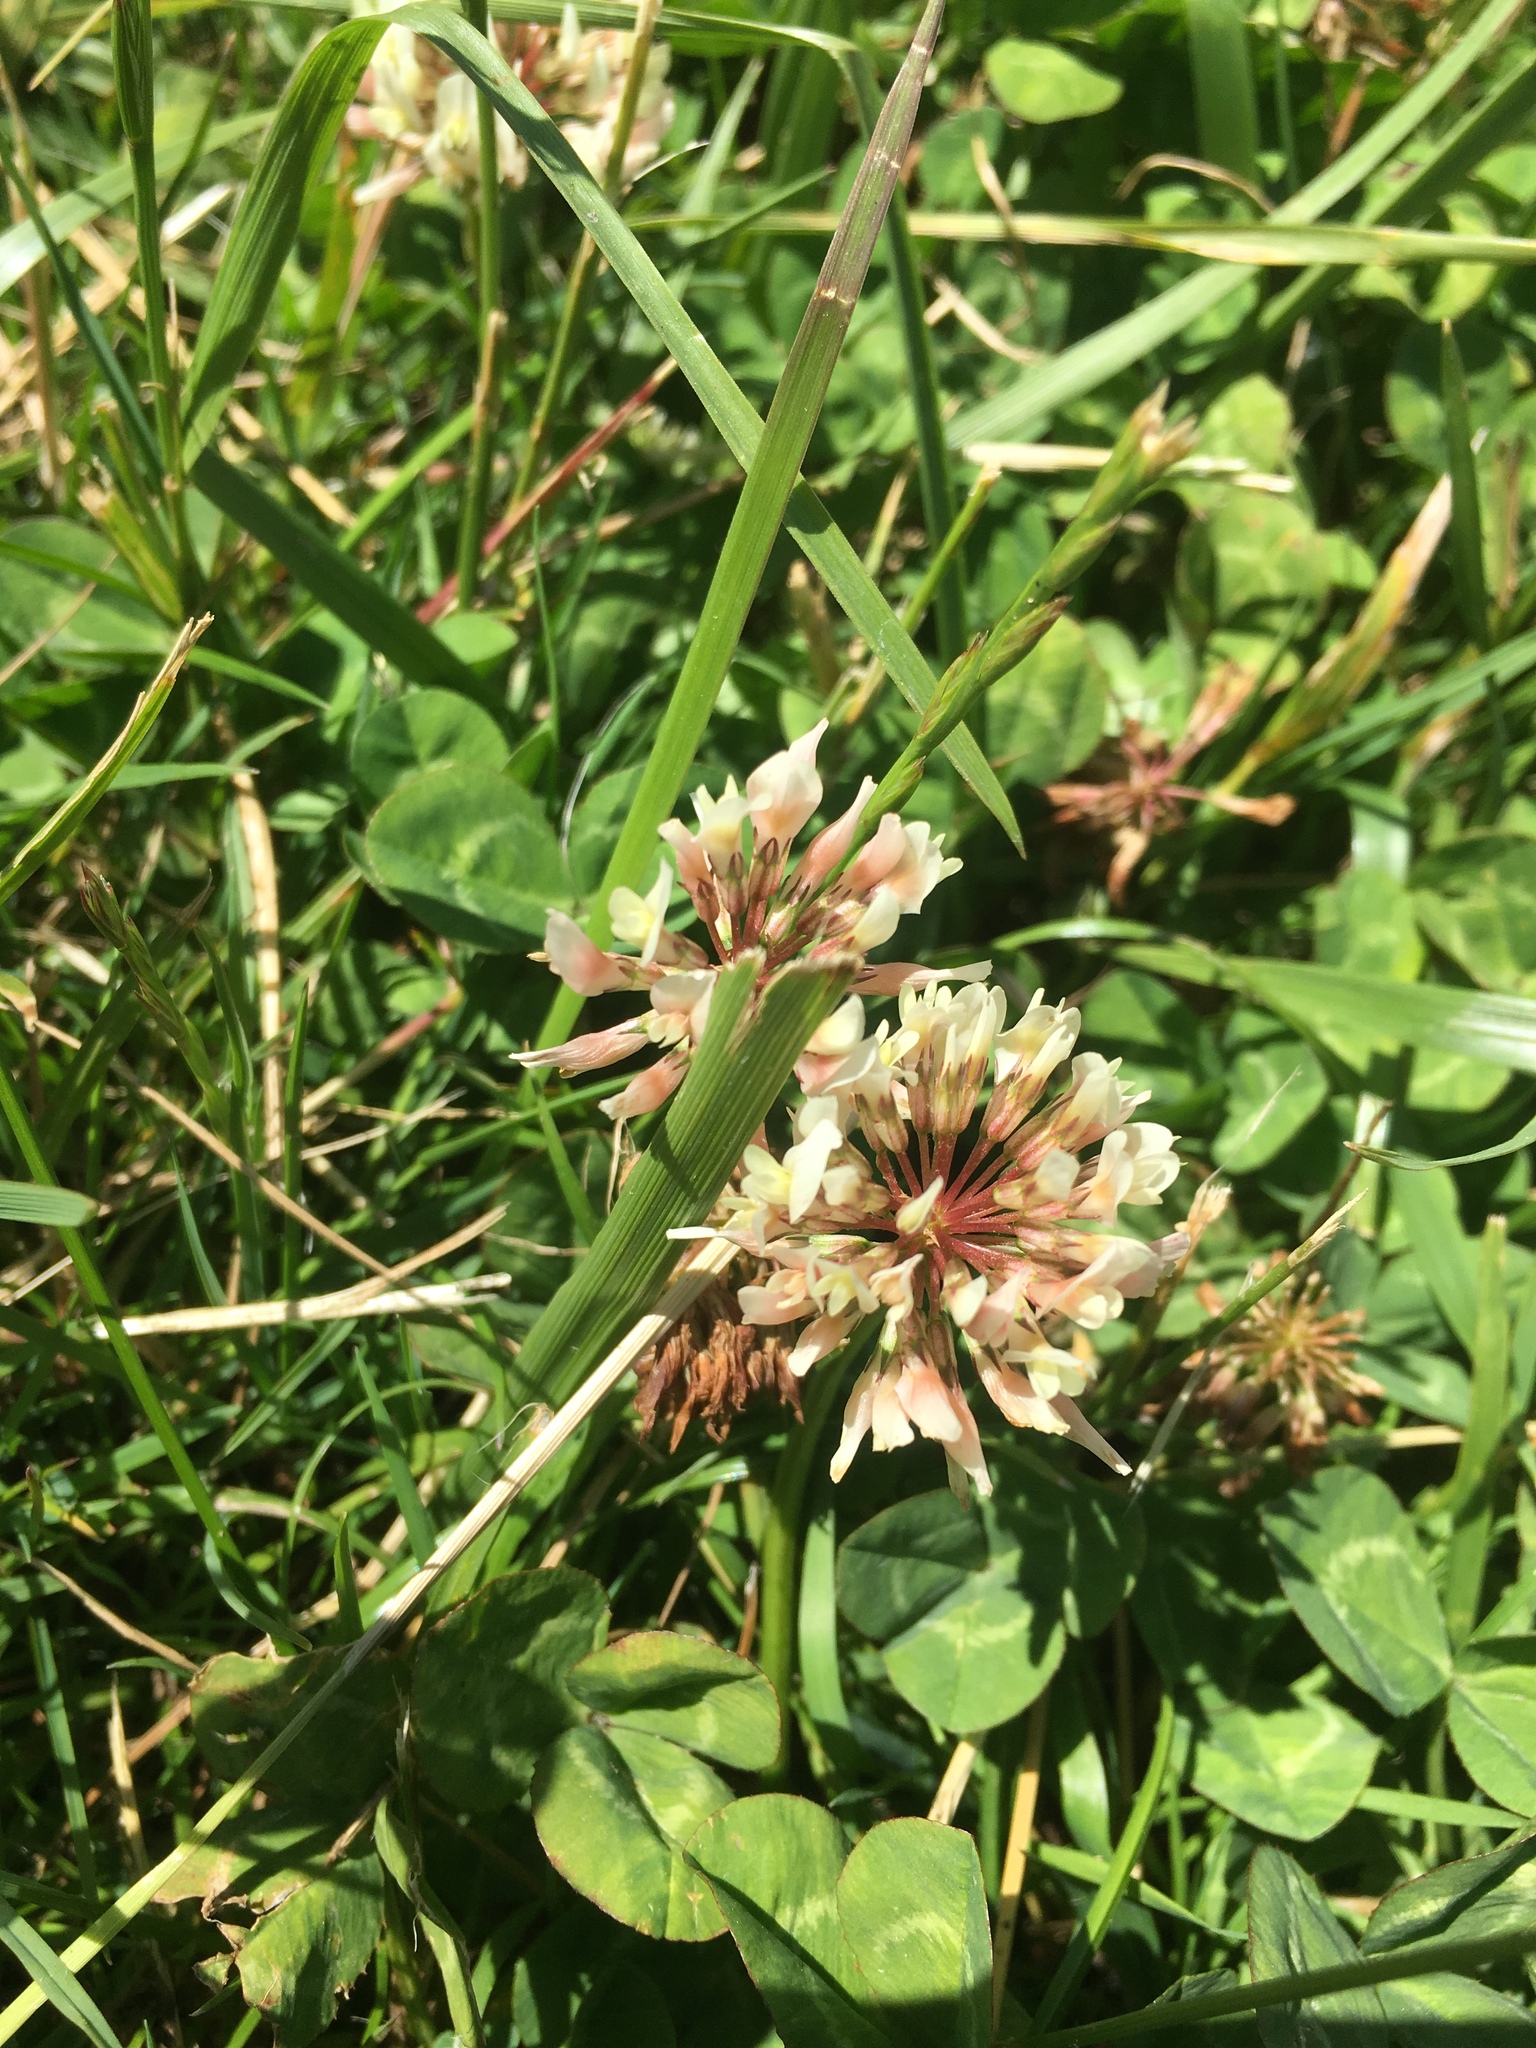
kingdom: Plantae
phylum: Tracheophyta
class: Magnoliopsida
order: Fabales
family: Fabaceae
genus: Trifolium
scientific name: Trifolium repens
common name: White clover
